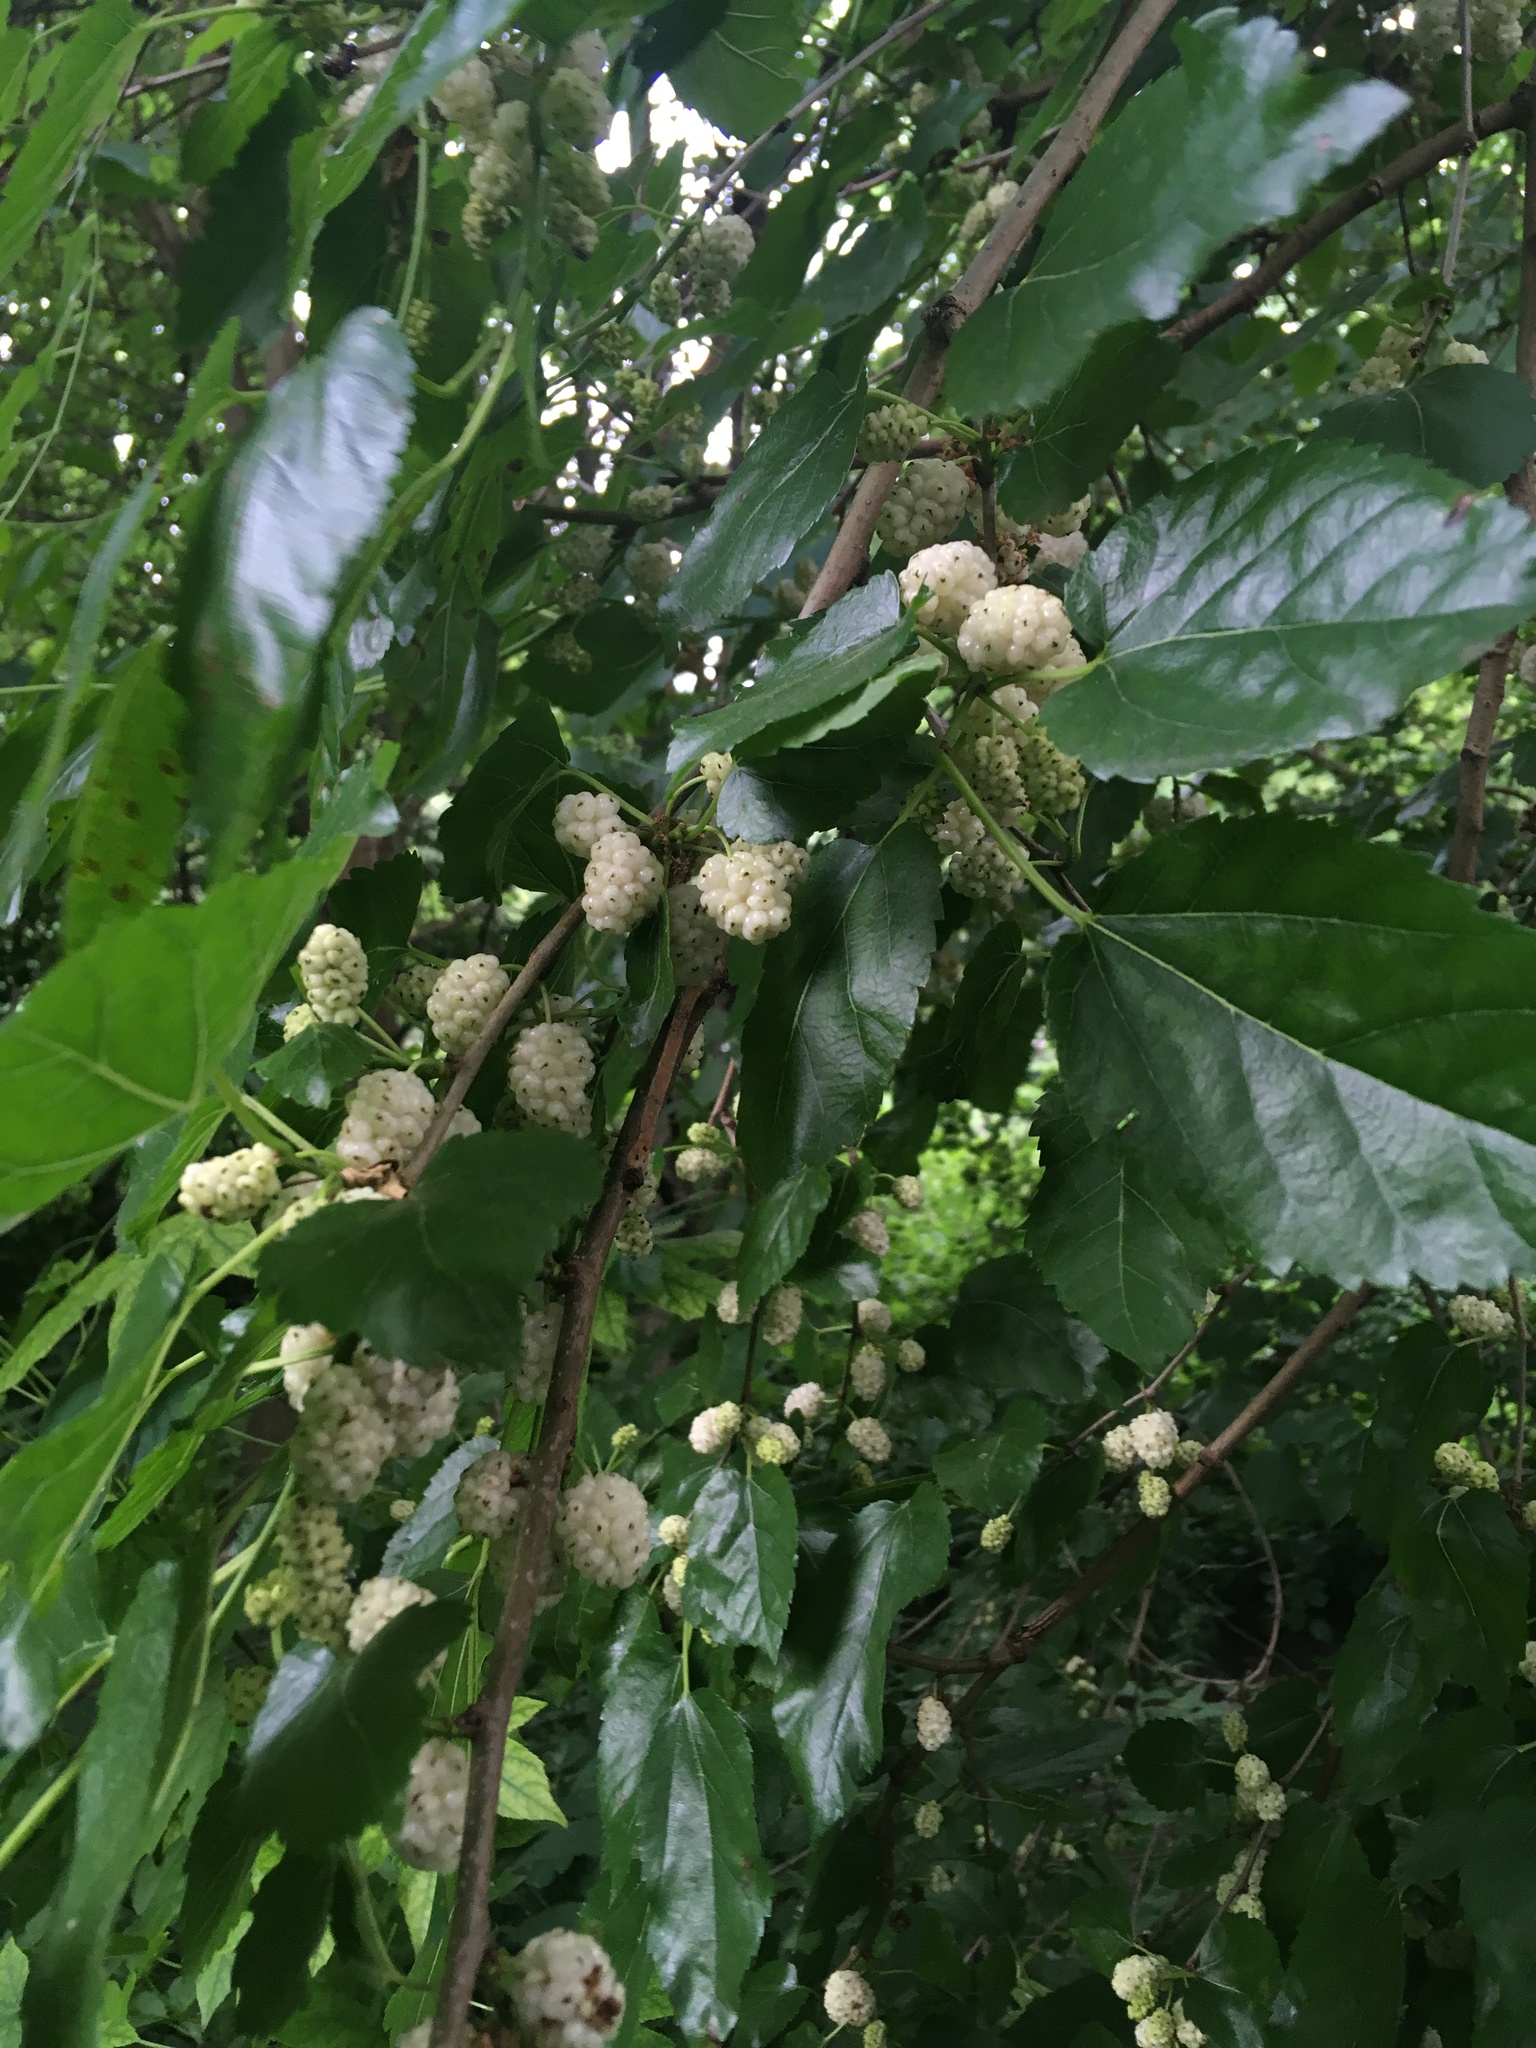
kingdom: Plantae
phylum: Tracheophyta
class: Magnoliopsida
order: Rosales
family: Moraceae
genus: Morus
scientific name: Morus alba
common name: White mulberry
